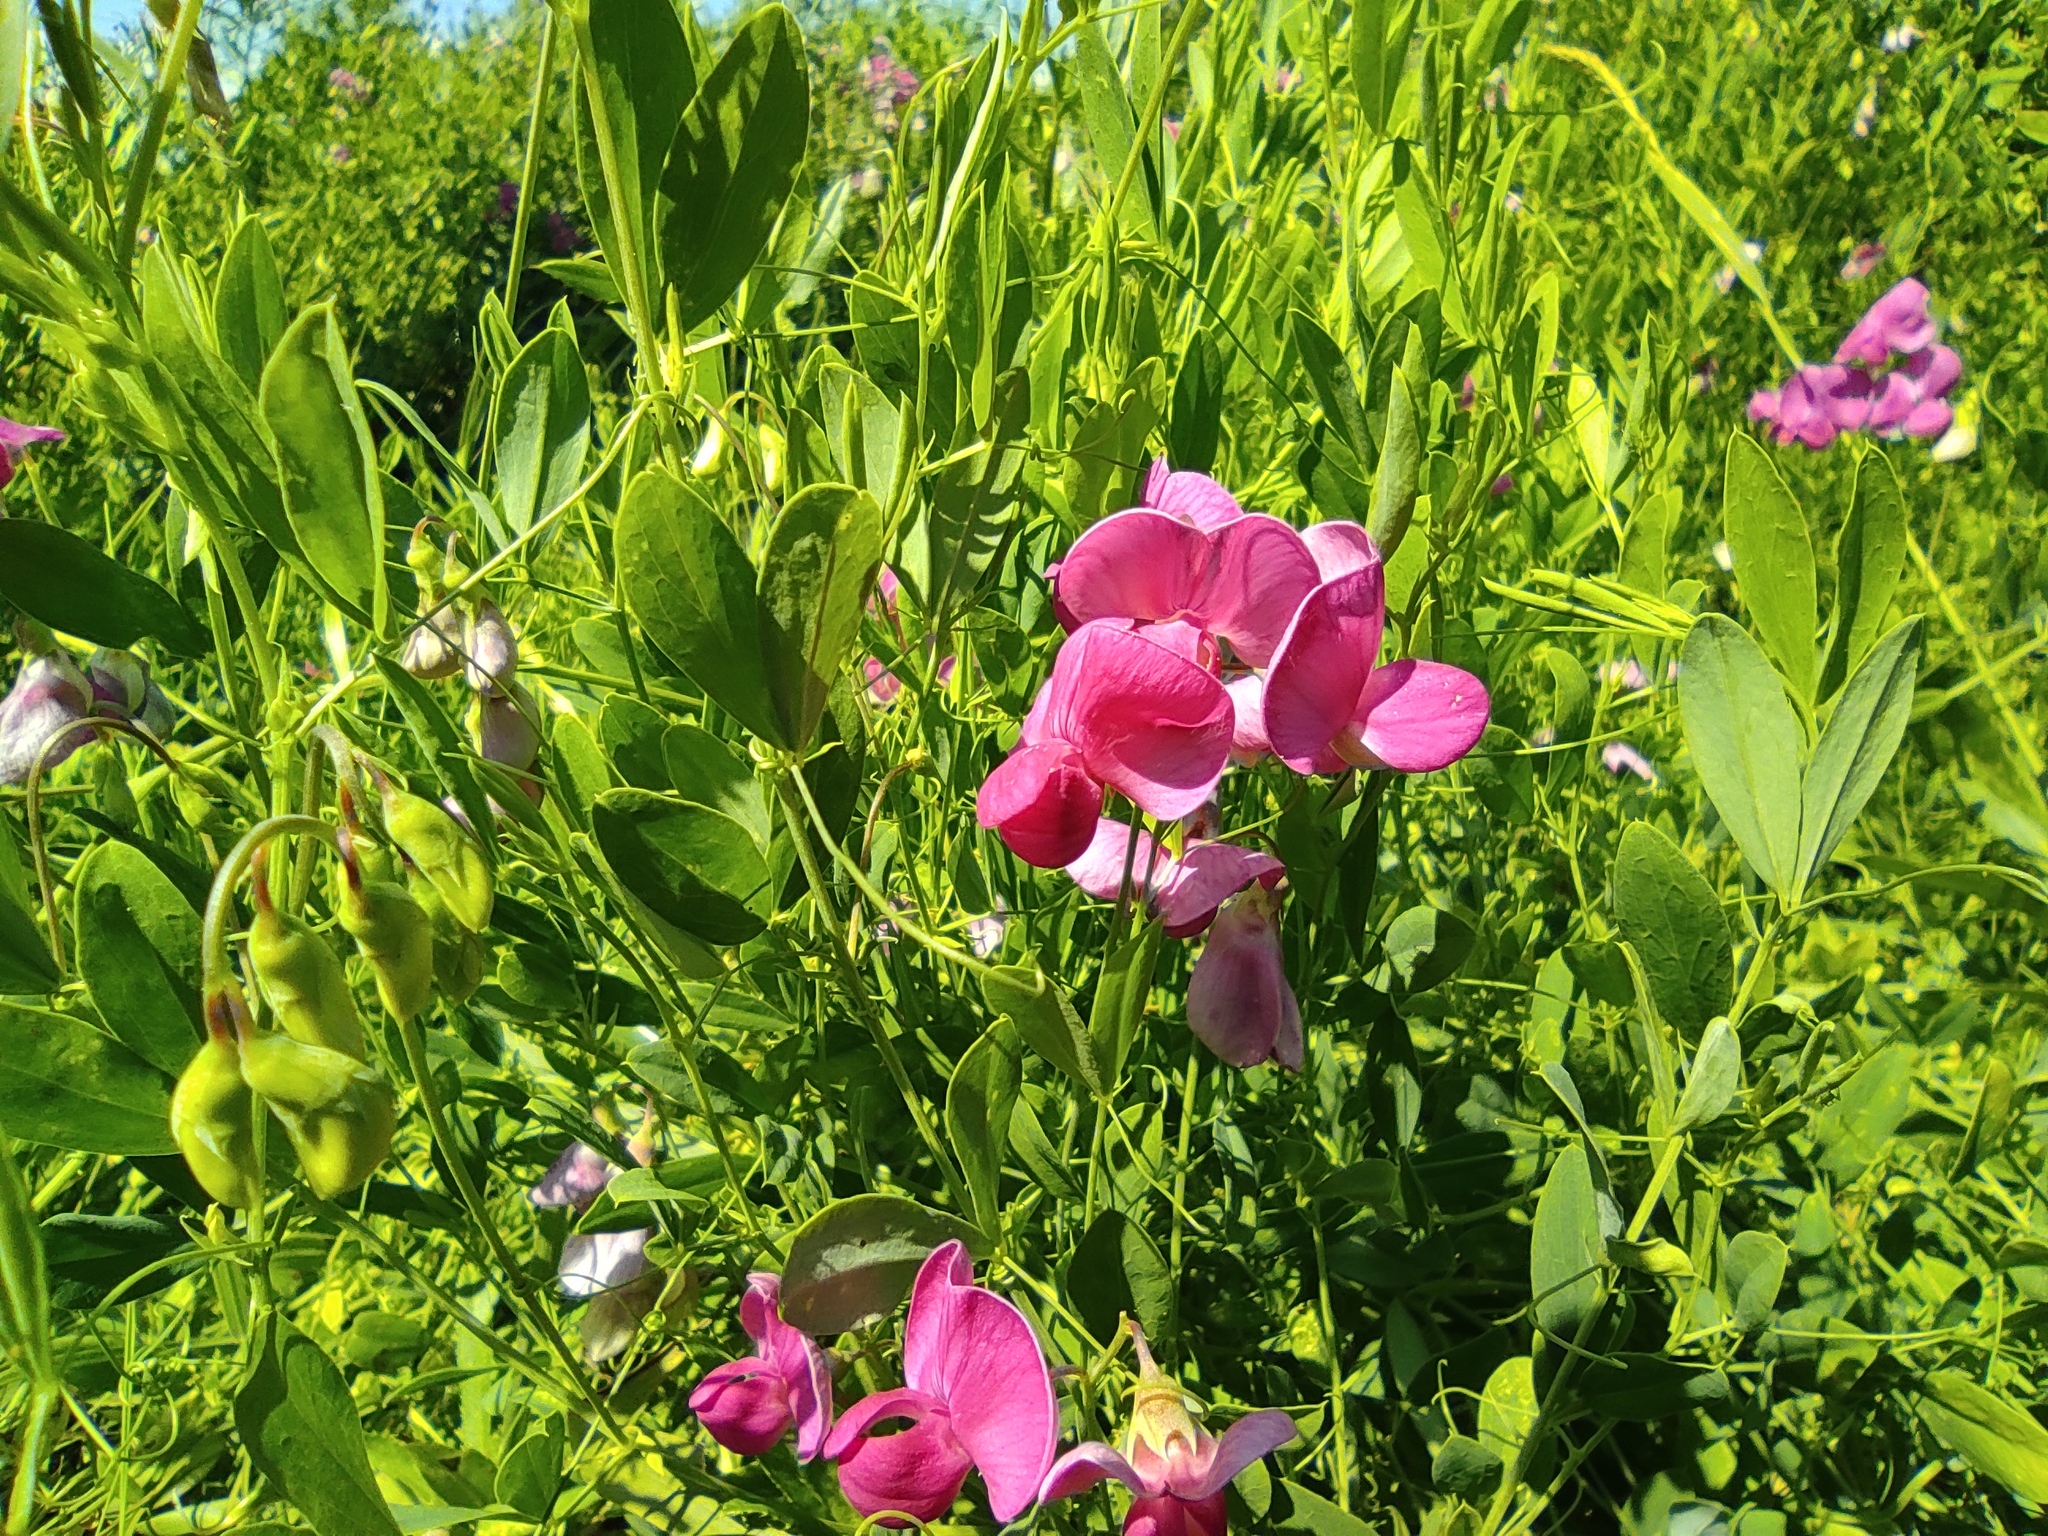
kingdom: Plantae
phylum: Tracheophyta
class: Magnoliopsida
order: Fabales
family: Fabaceae
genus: Lathyrus
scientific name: Lathyrus tuberosus
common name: Tuberous pea
